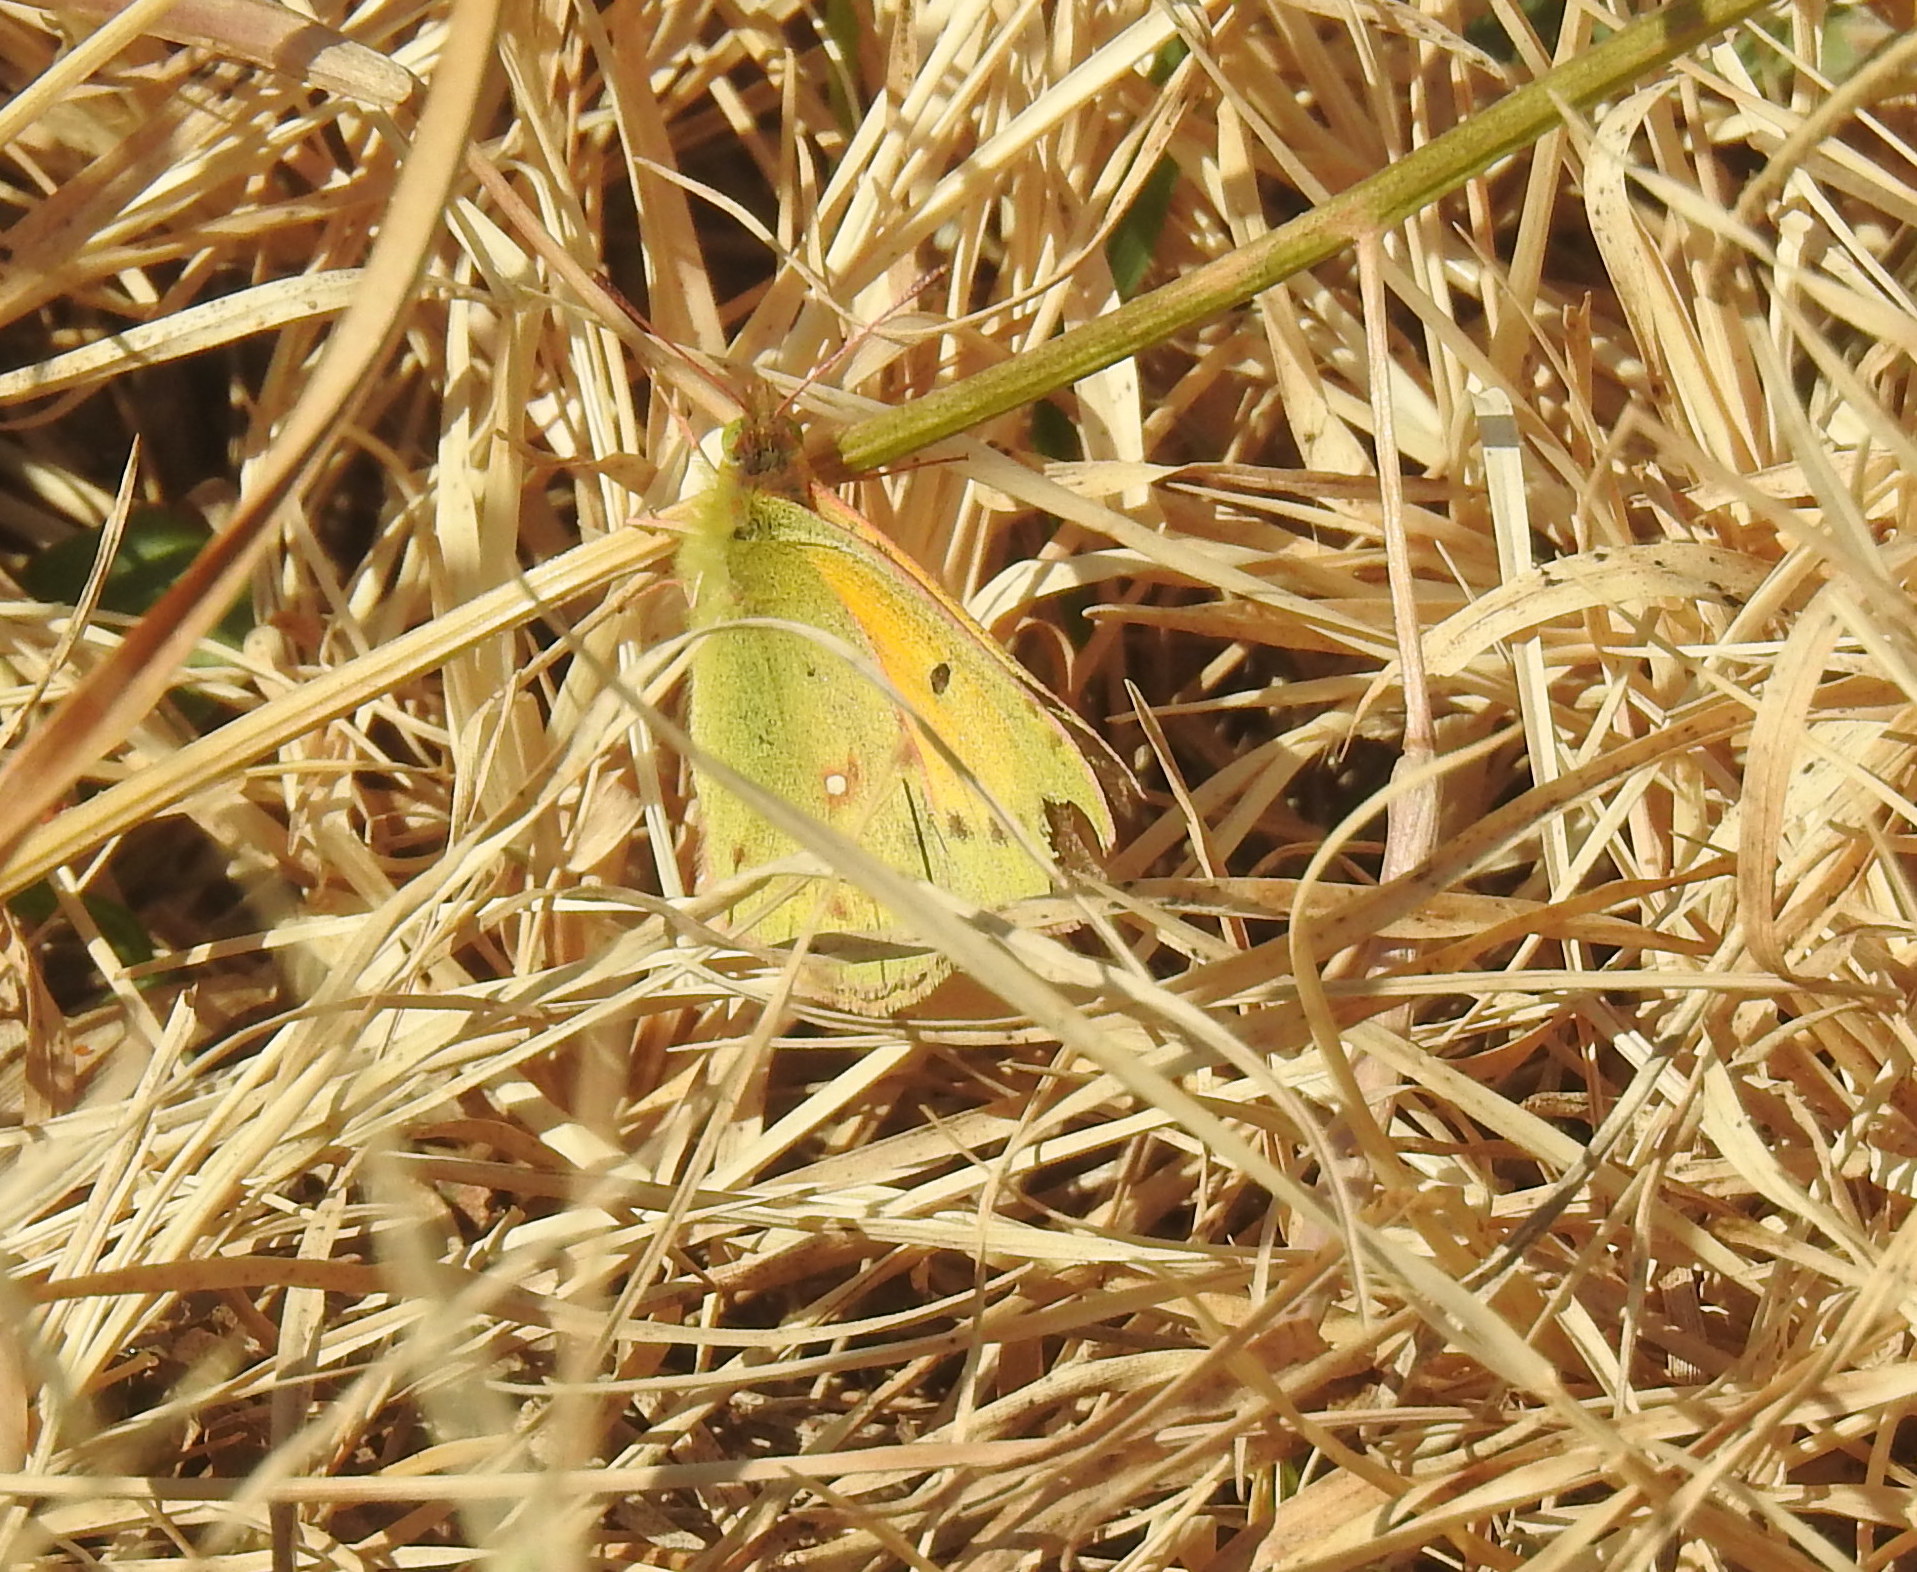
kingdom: Animalia
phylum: Arthropoda
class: Insecta
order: Lepidoptera
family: Pieridae
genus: Colias
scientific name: Colias electo
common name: African clouded yellow
